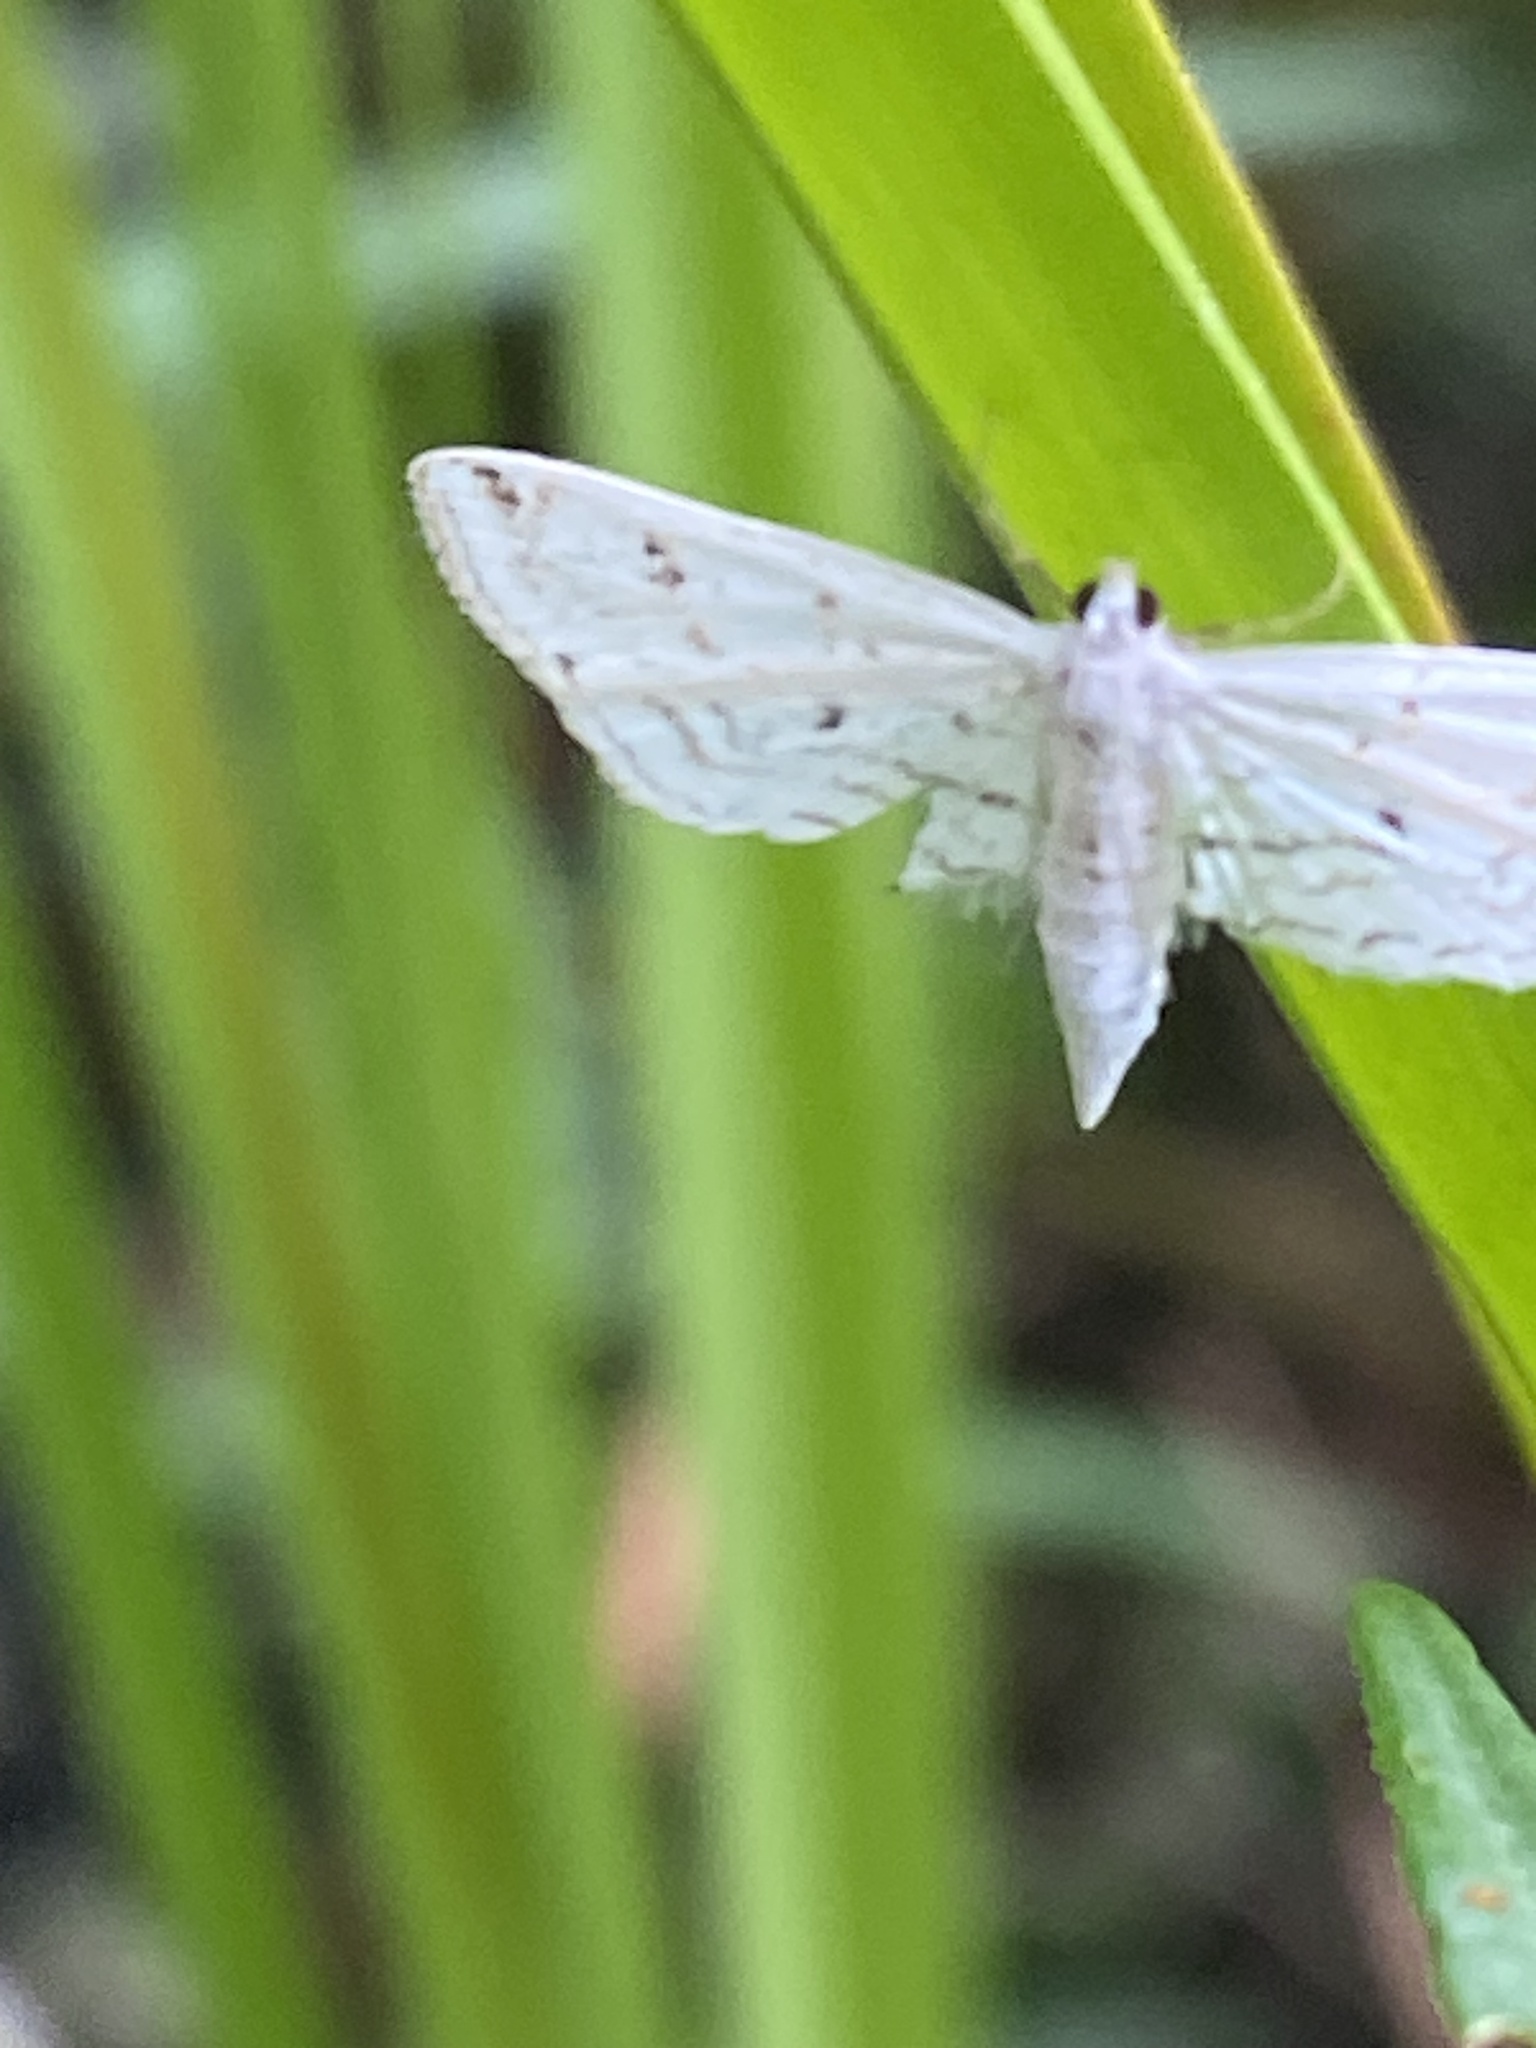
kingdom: Animalia
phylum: Arthropoda
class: Insecta
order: Lepidoptera
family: Crambidae
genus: Parapoynx
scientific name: Parapoynx allionealis
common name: Bladderwort casemaker
